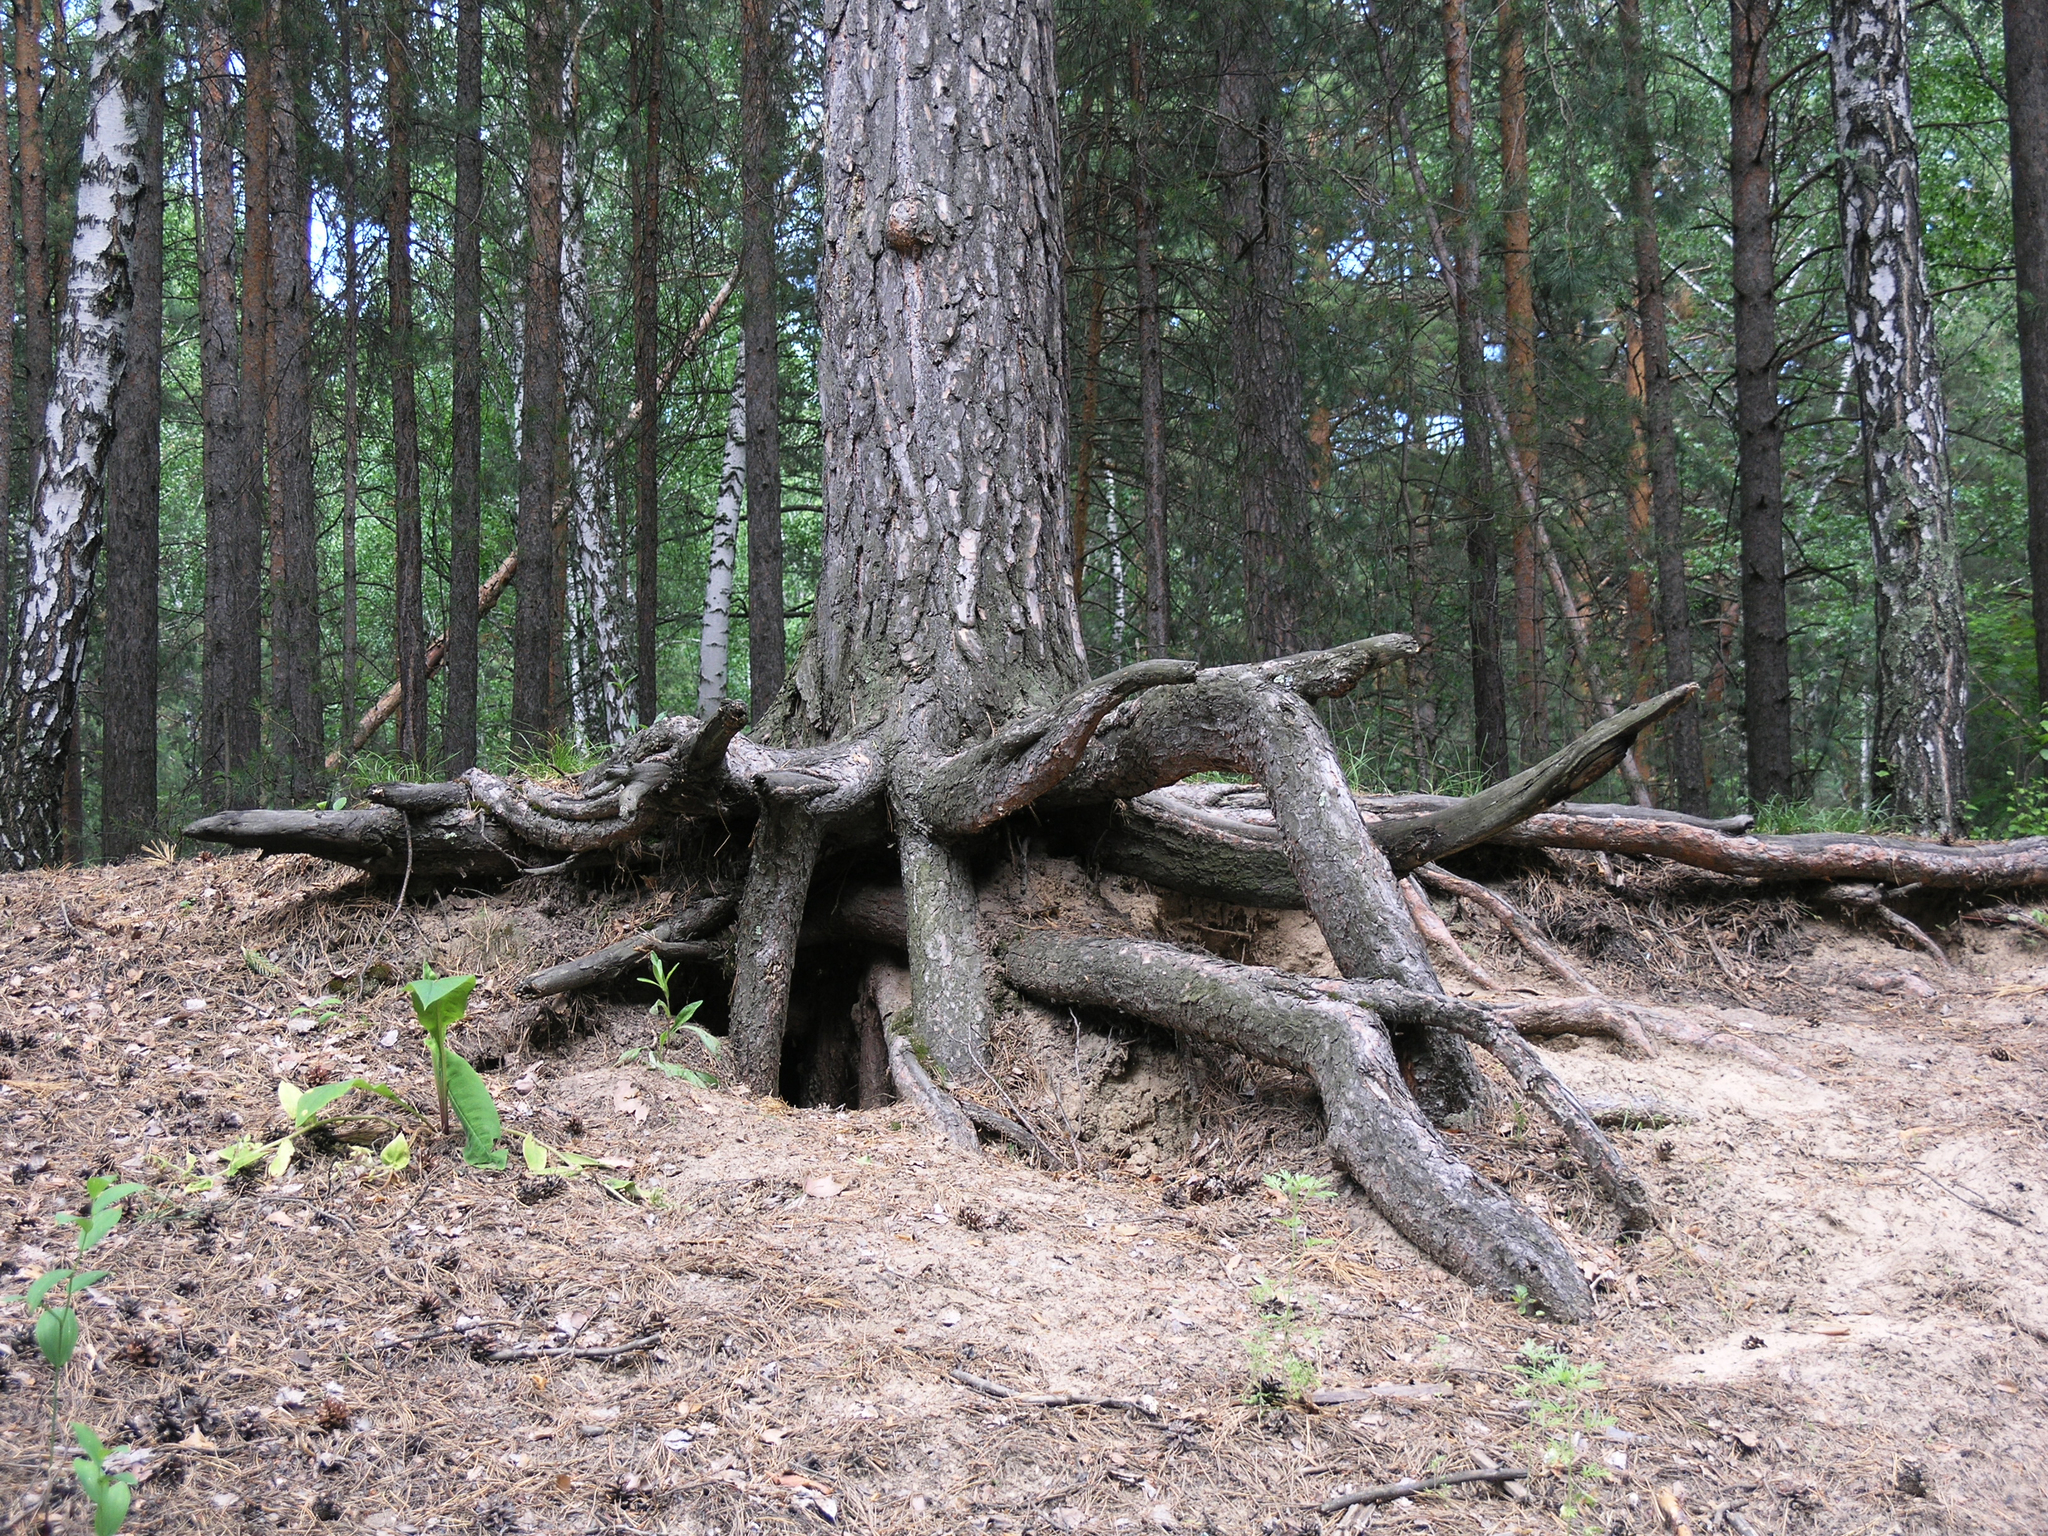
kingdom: Plantae
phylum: Tracheophyta
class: Pinopsida
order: Pinales
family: Pinaceae
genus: Pinus
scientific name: Pinus sylvestris
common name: Scots pine
